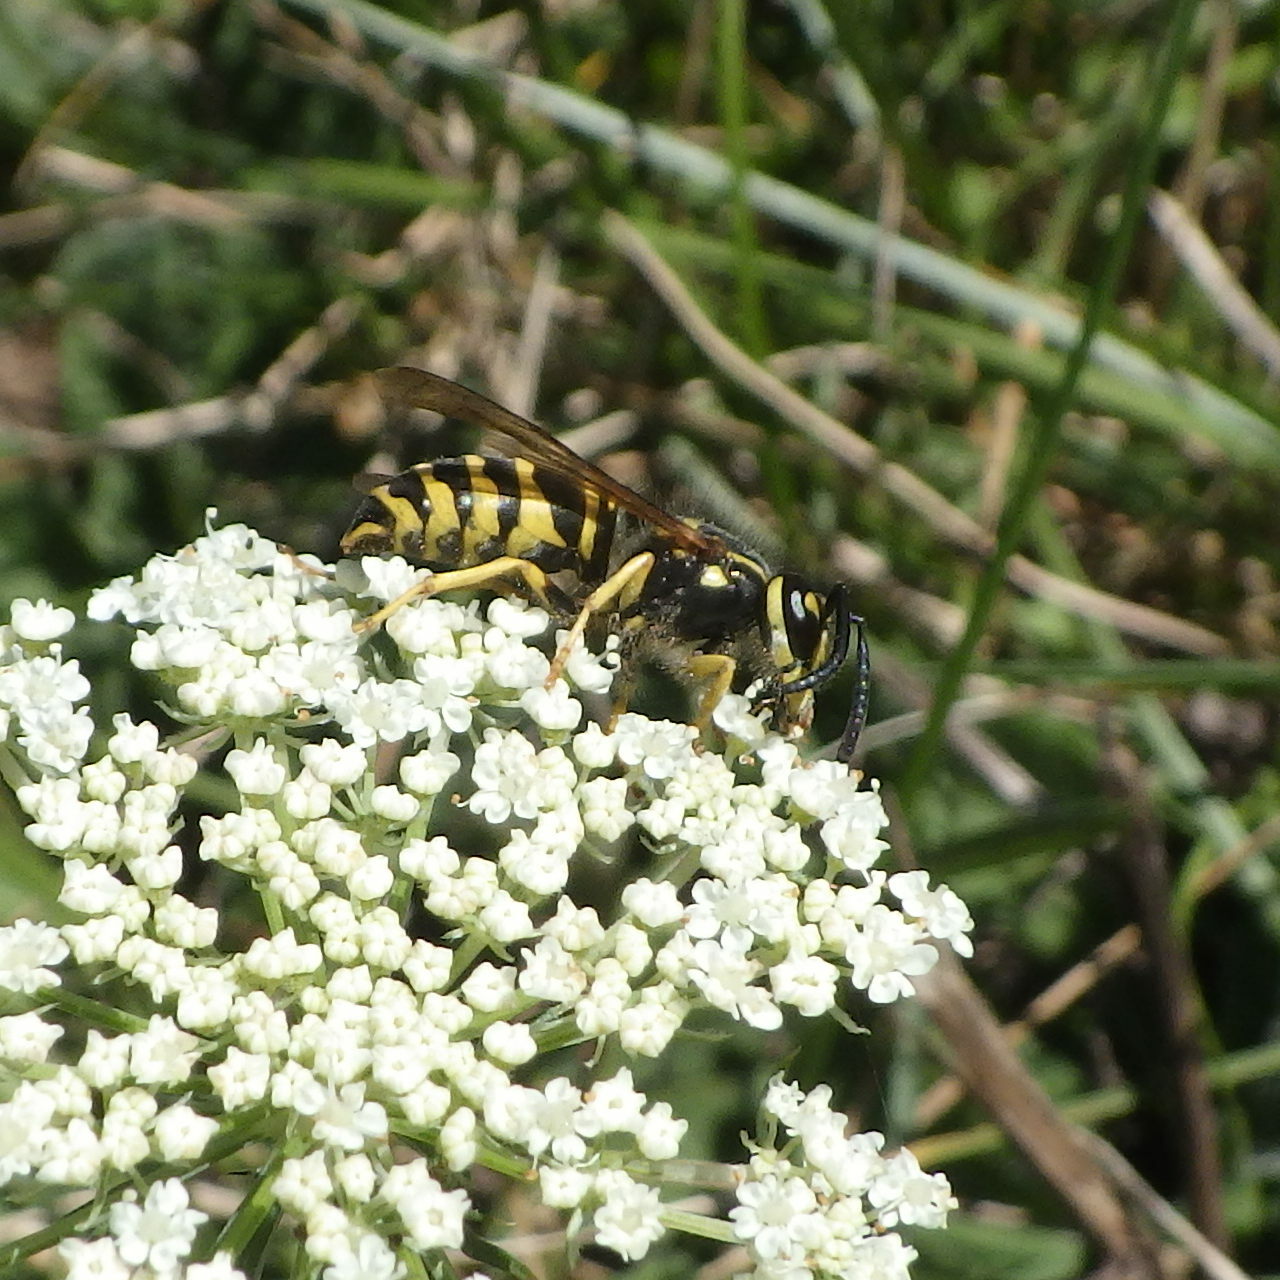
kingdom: Animalia
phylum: Arthropoda
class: Insecta
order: Hymenoptera
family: Vespidae
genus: Vespula
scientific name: Vespula maculifrons
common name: Eastern yellowjacket
